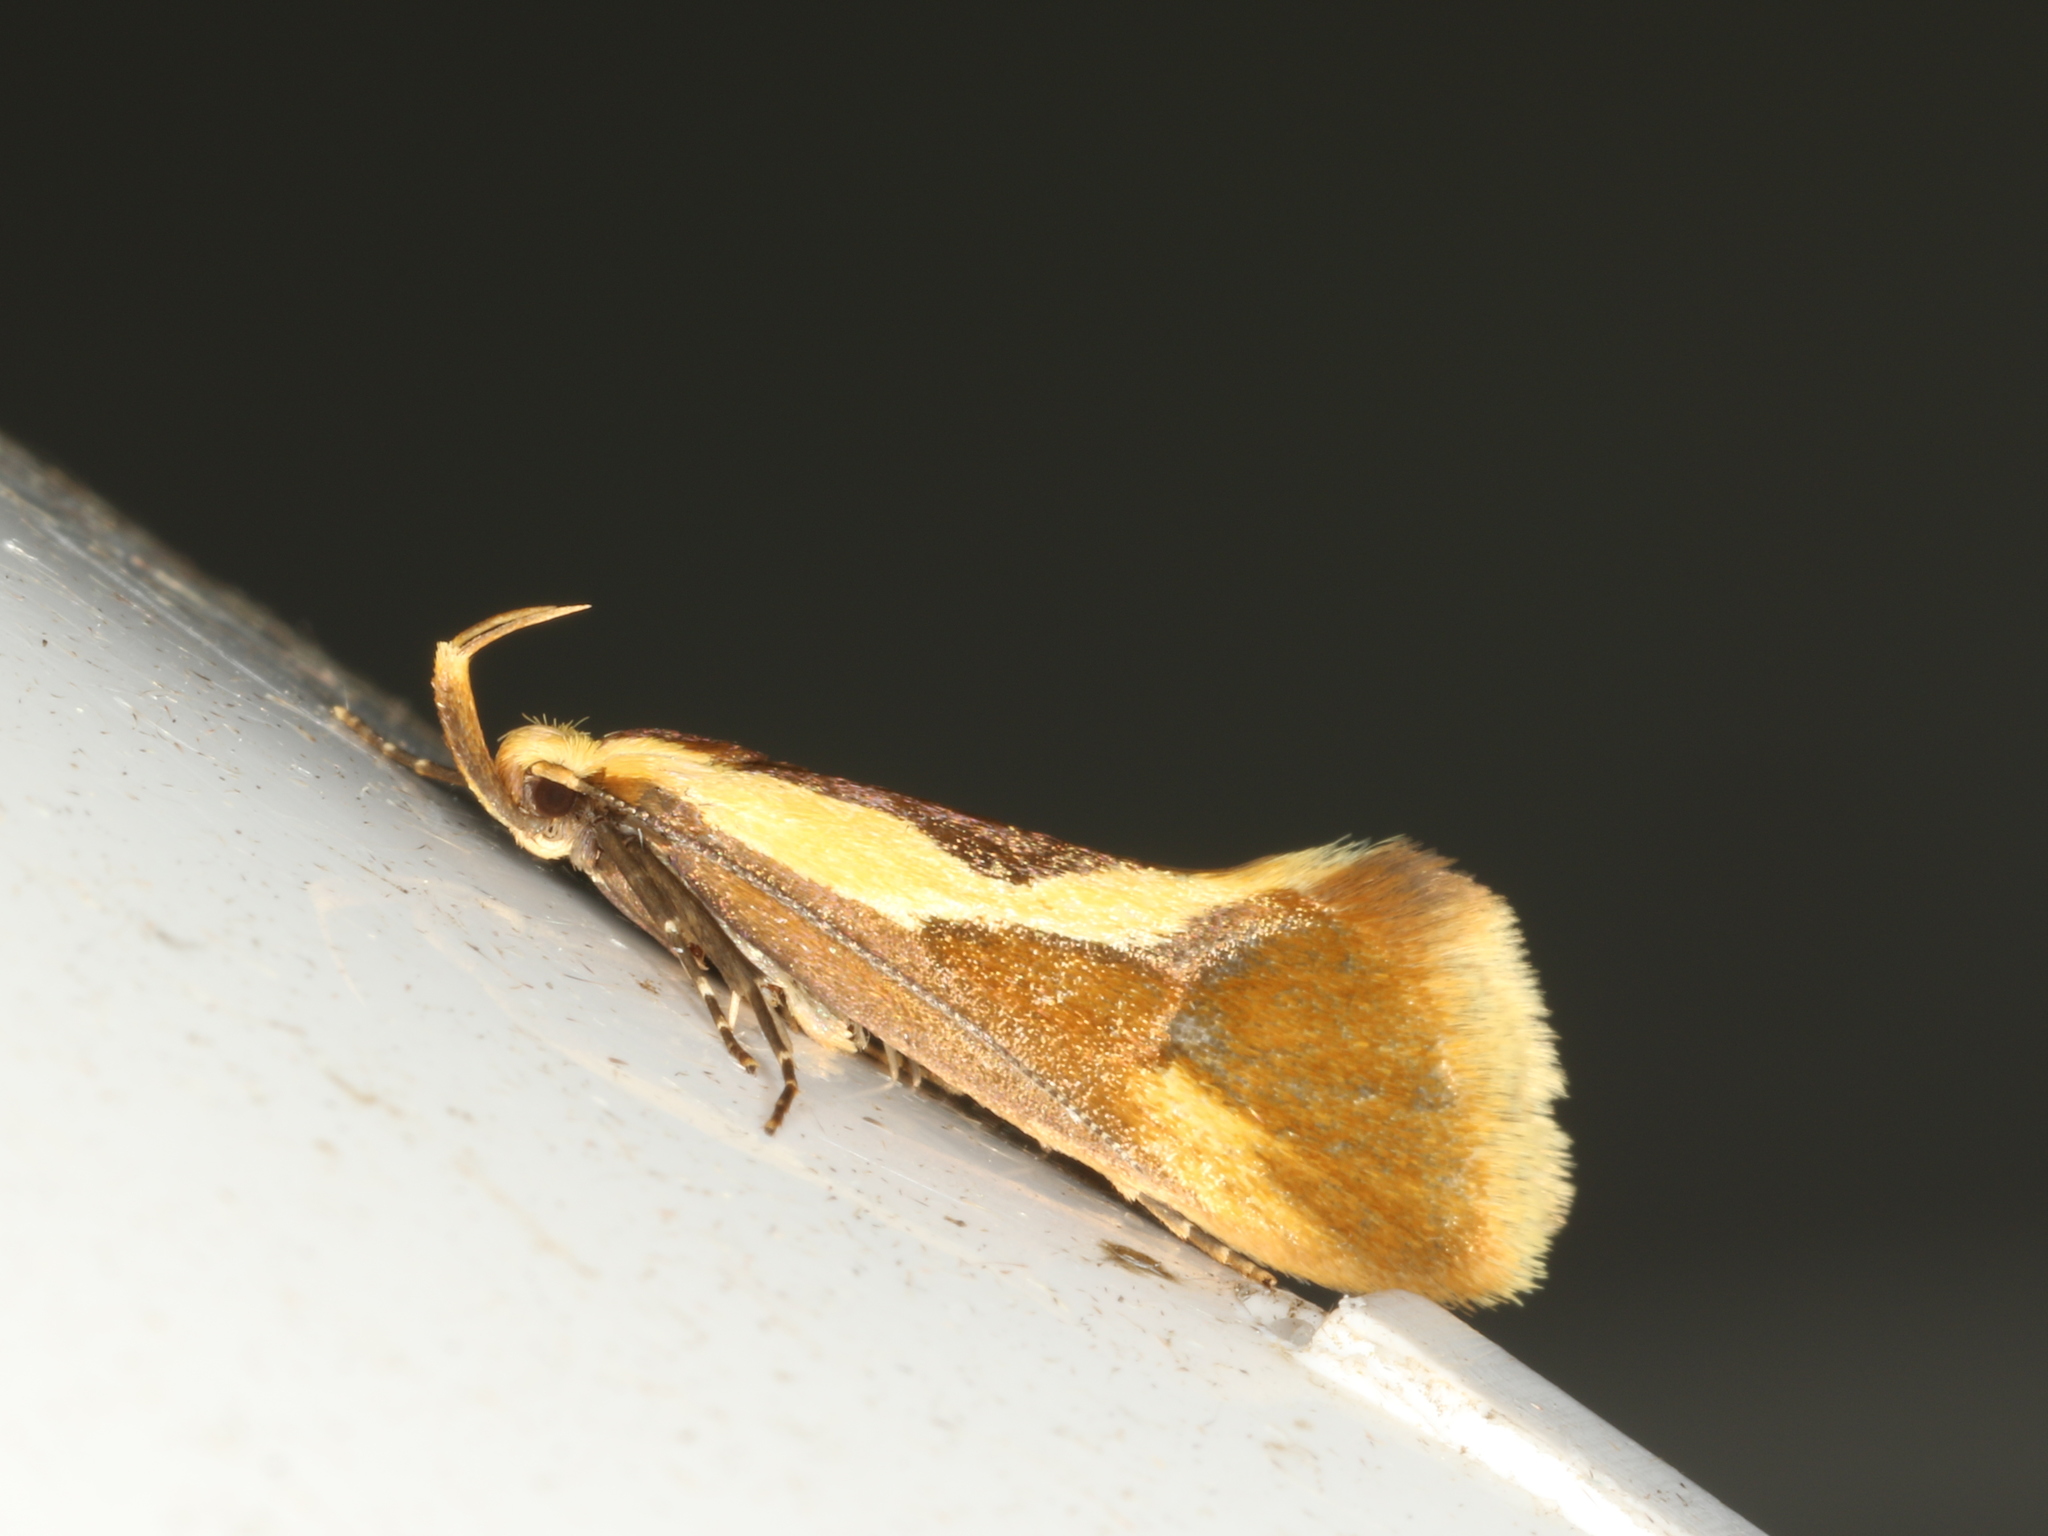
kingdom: Animalia
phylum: Arthropoda
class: Insecta
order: Lepidoptera
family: Oecophoridae
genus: Harpella
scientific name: Harpella forficella
